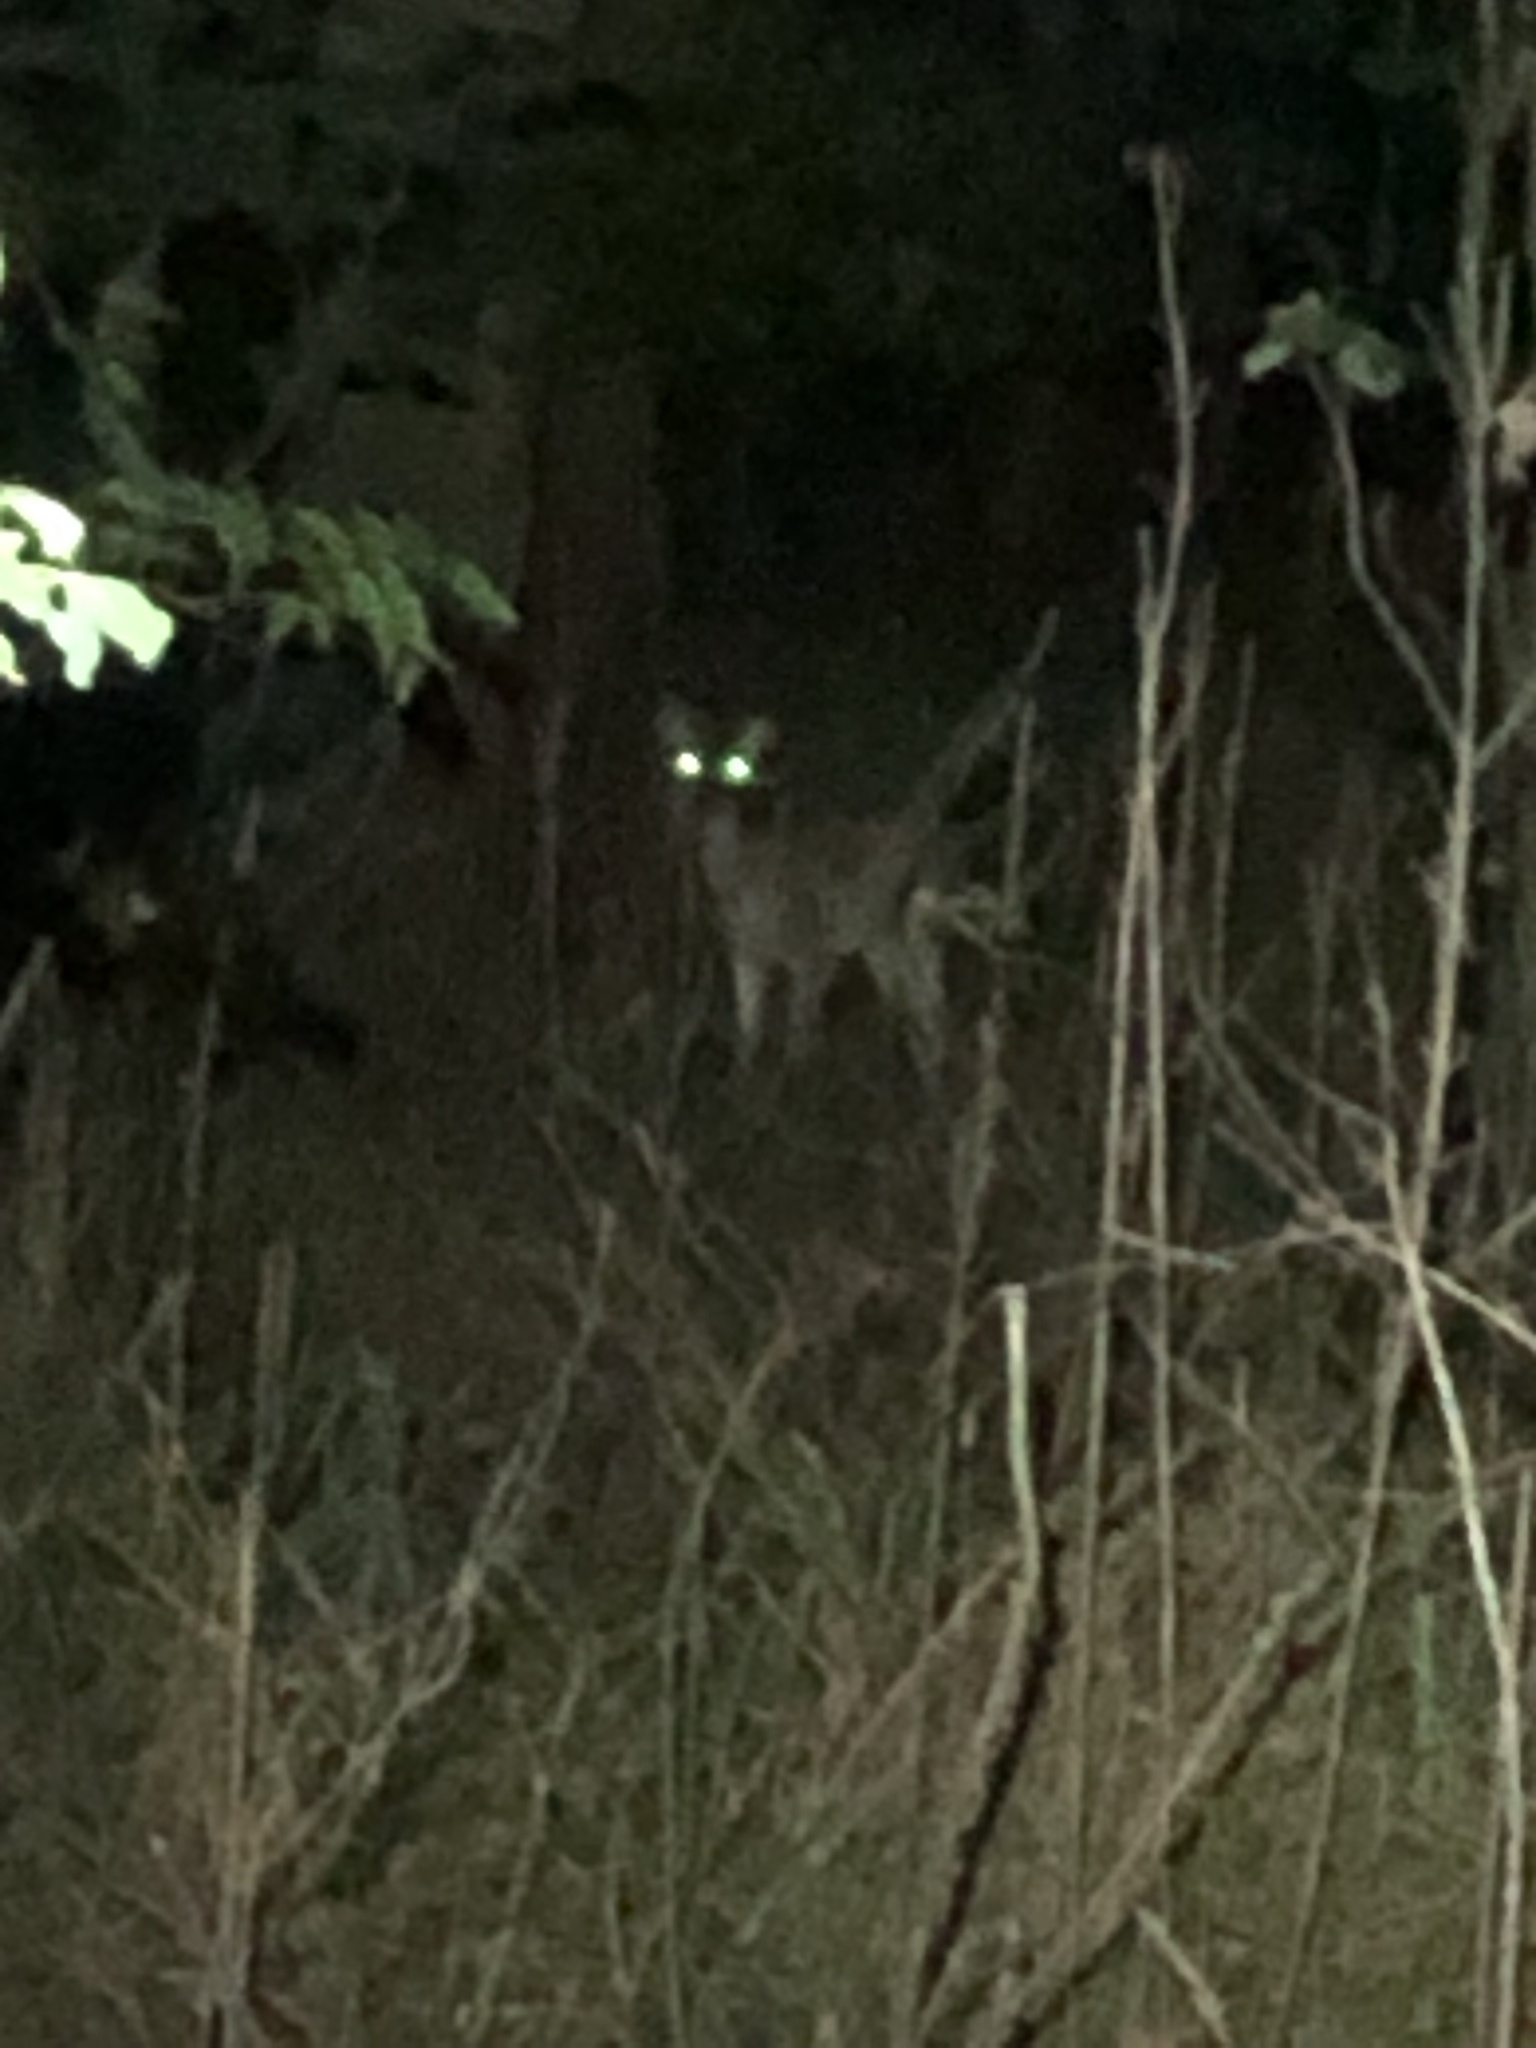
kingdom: Animalia
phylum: Chordata
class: Mammalia
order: Artiodactyla
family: Cervidae
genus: Odocoileus
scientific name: Odocoileus virginianus
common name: White-tailed deer
